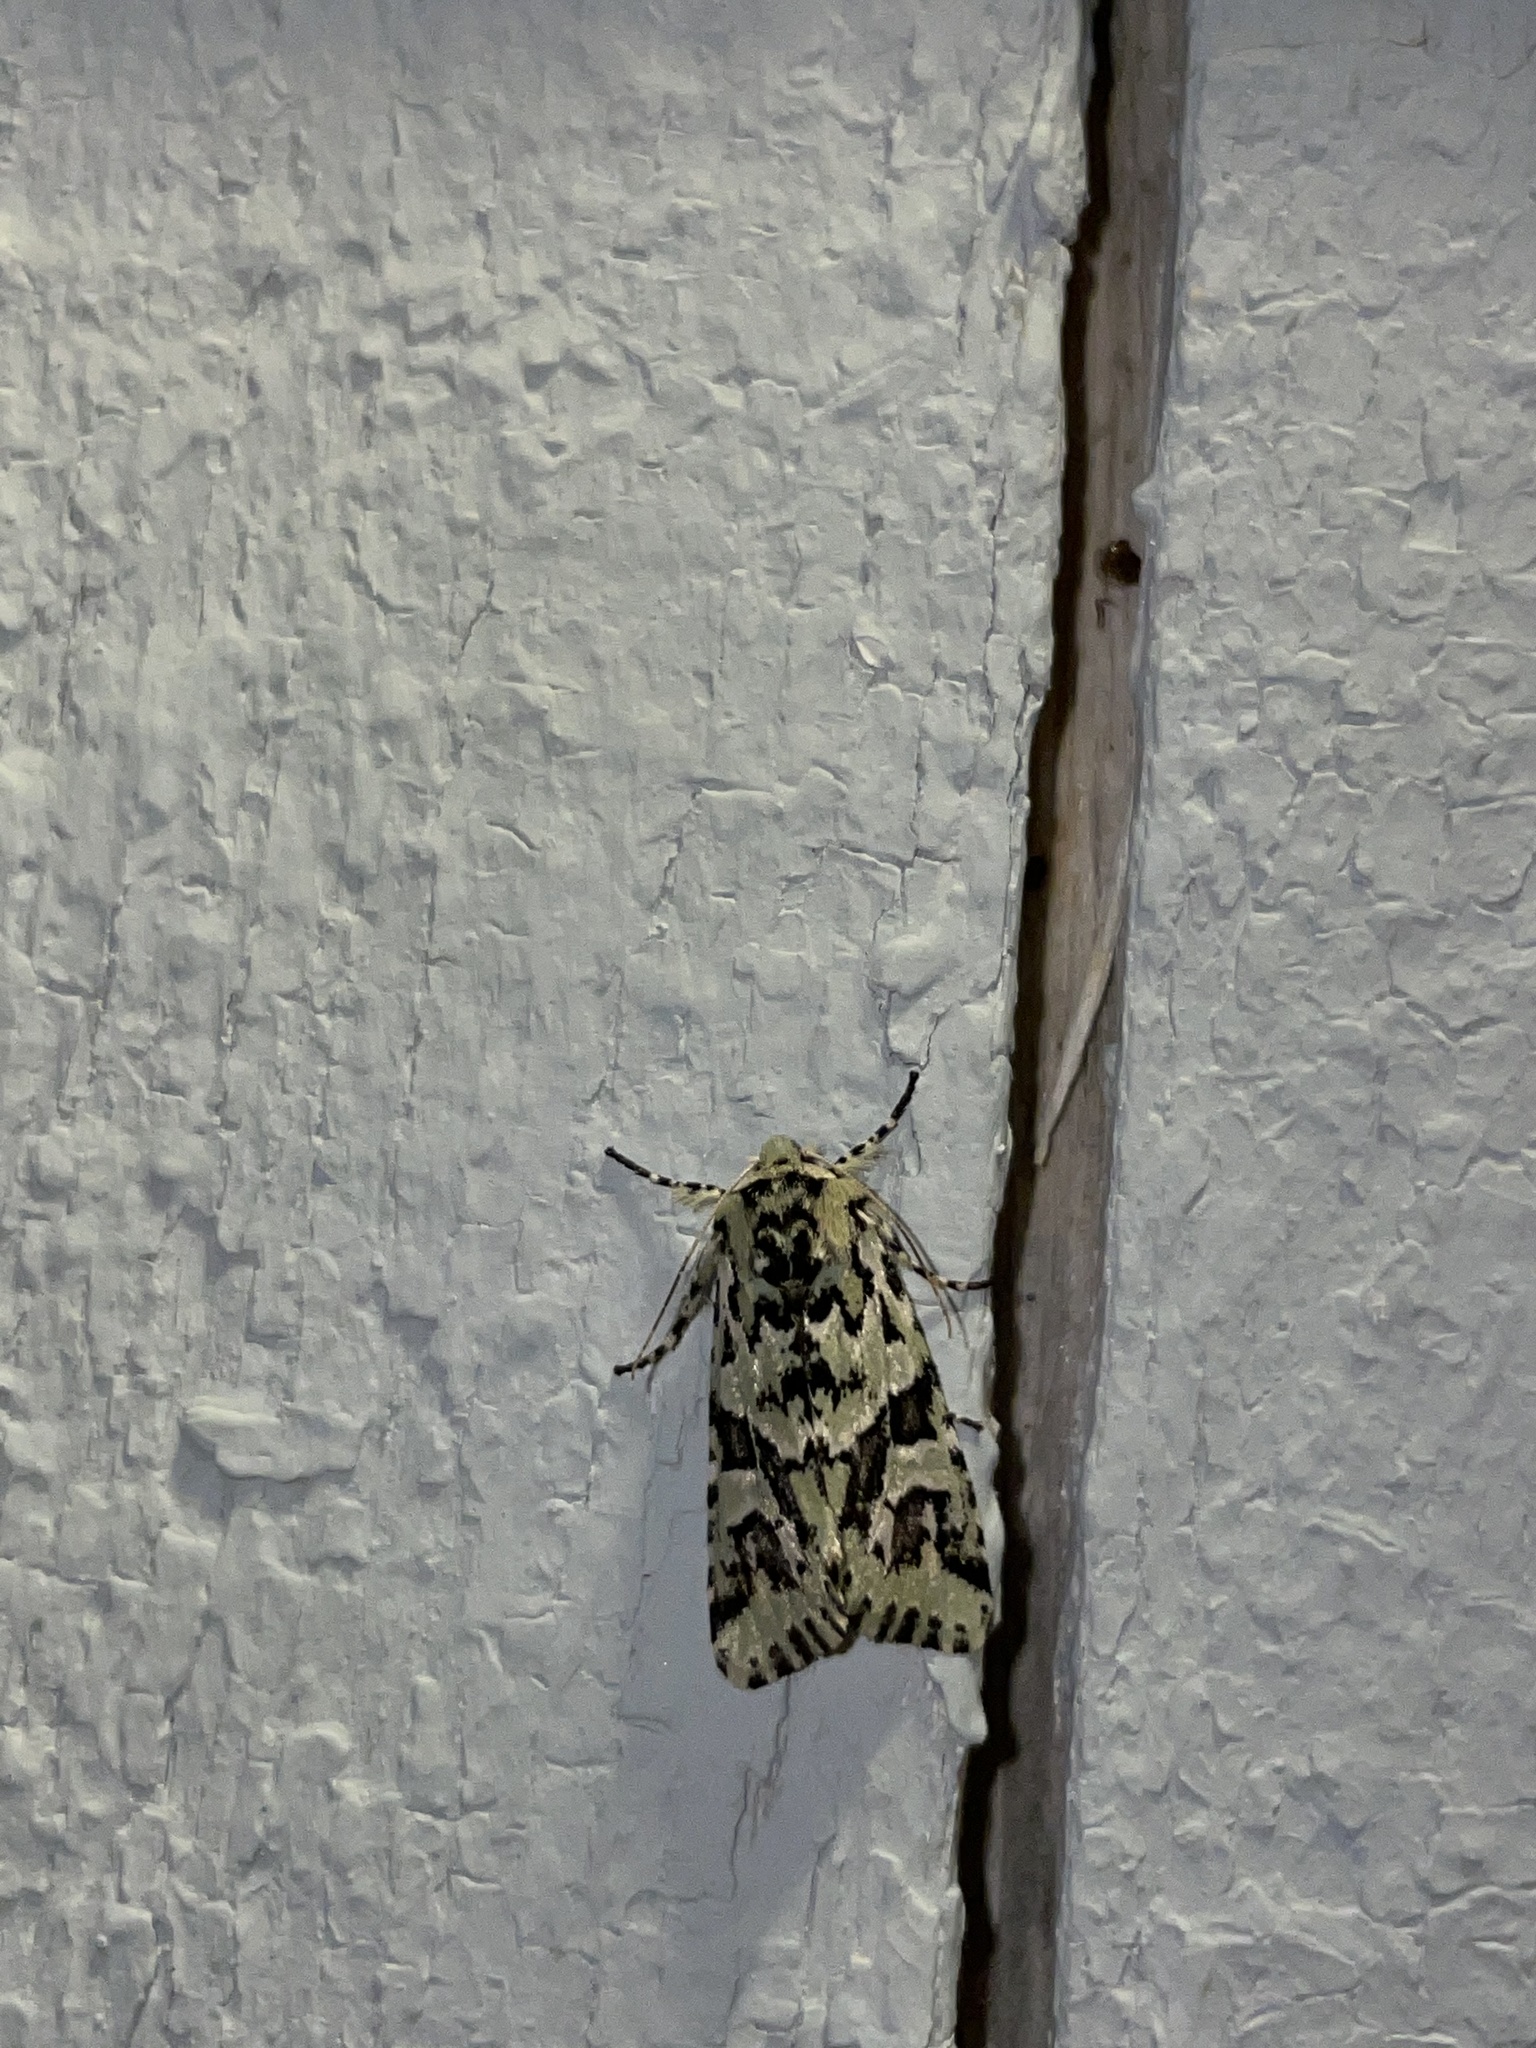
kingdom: Animalia
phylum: Arthropoda
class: Insecta
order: Lepidoptera
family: Noctuidae
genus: Feralia
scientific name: Feralia comstocki
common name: Comstock's sallow
